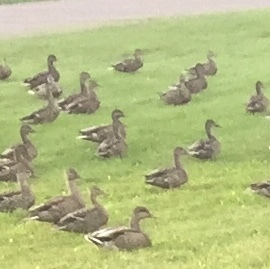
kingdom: Animalia
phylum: Chordata
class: Aves
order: Anseriformes
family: Anatidae
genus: Anas
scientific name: Anas platyrhynchos
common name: Mallard
